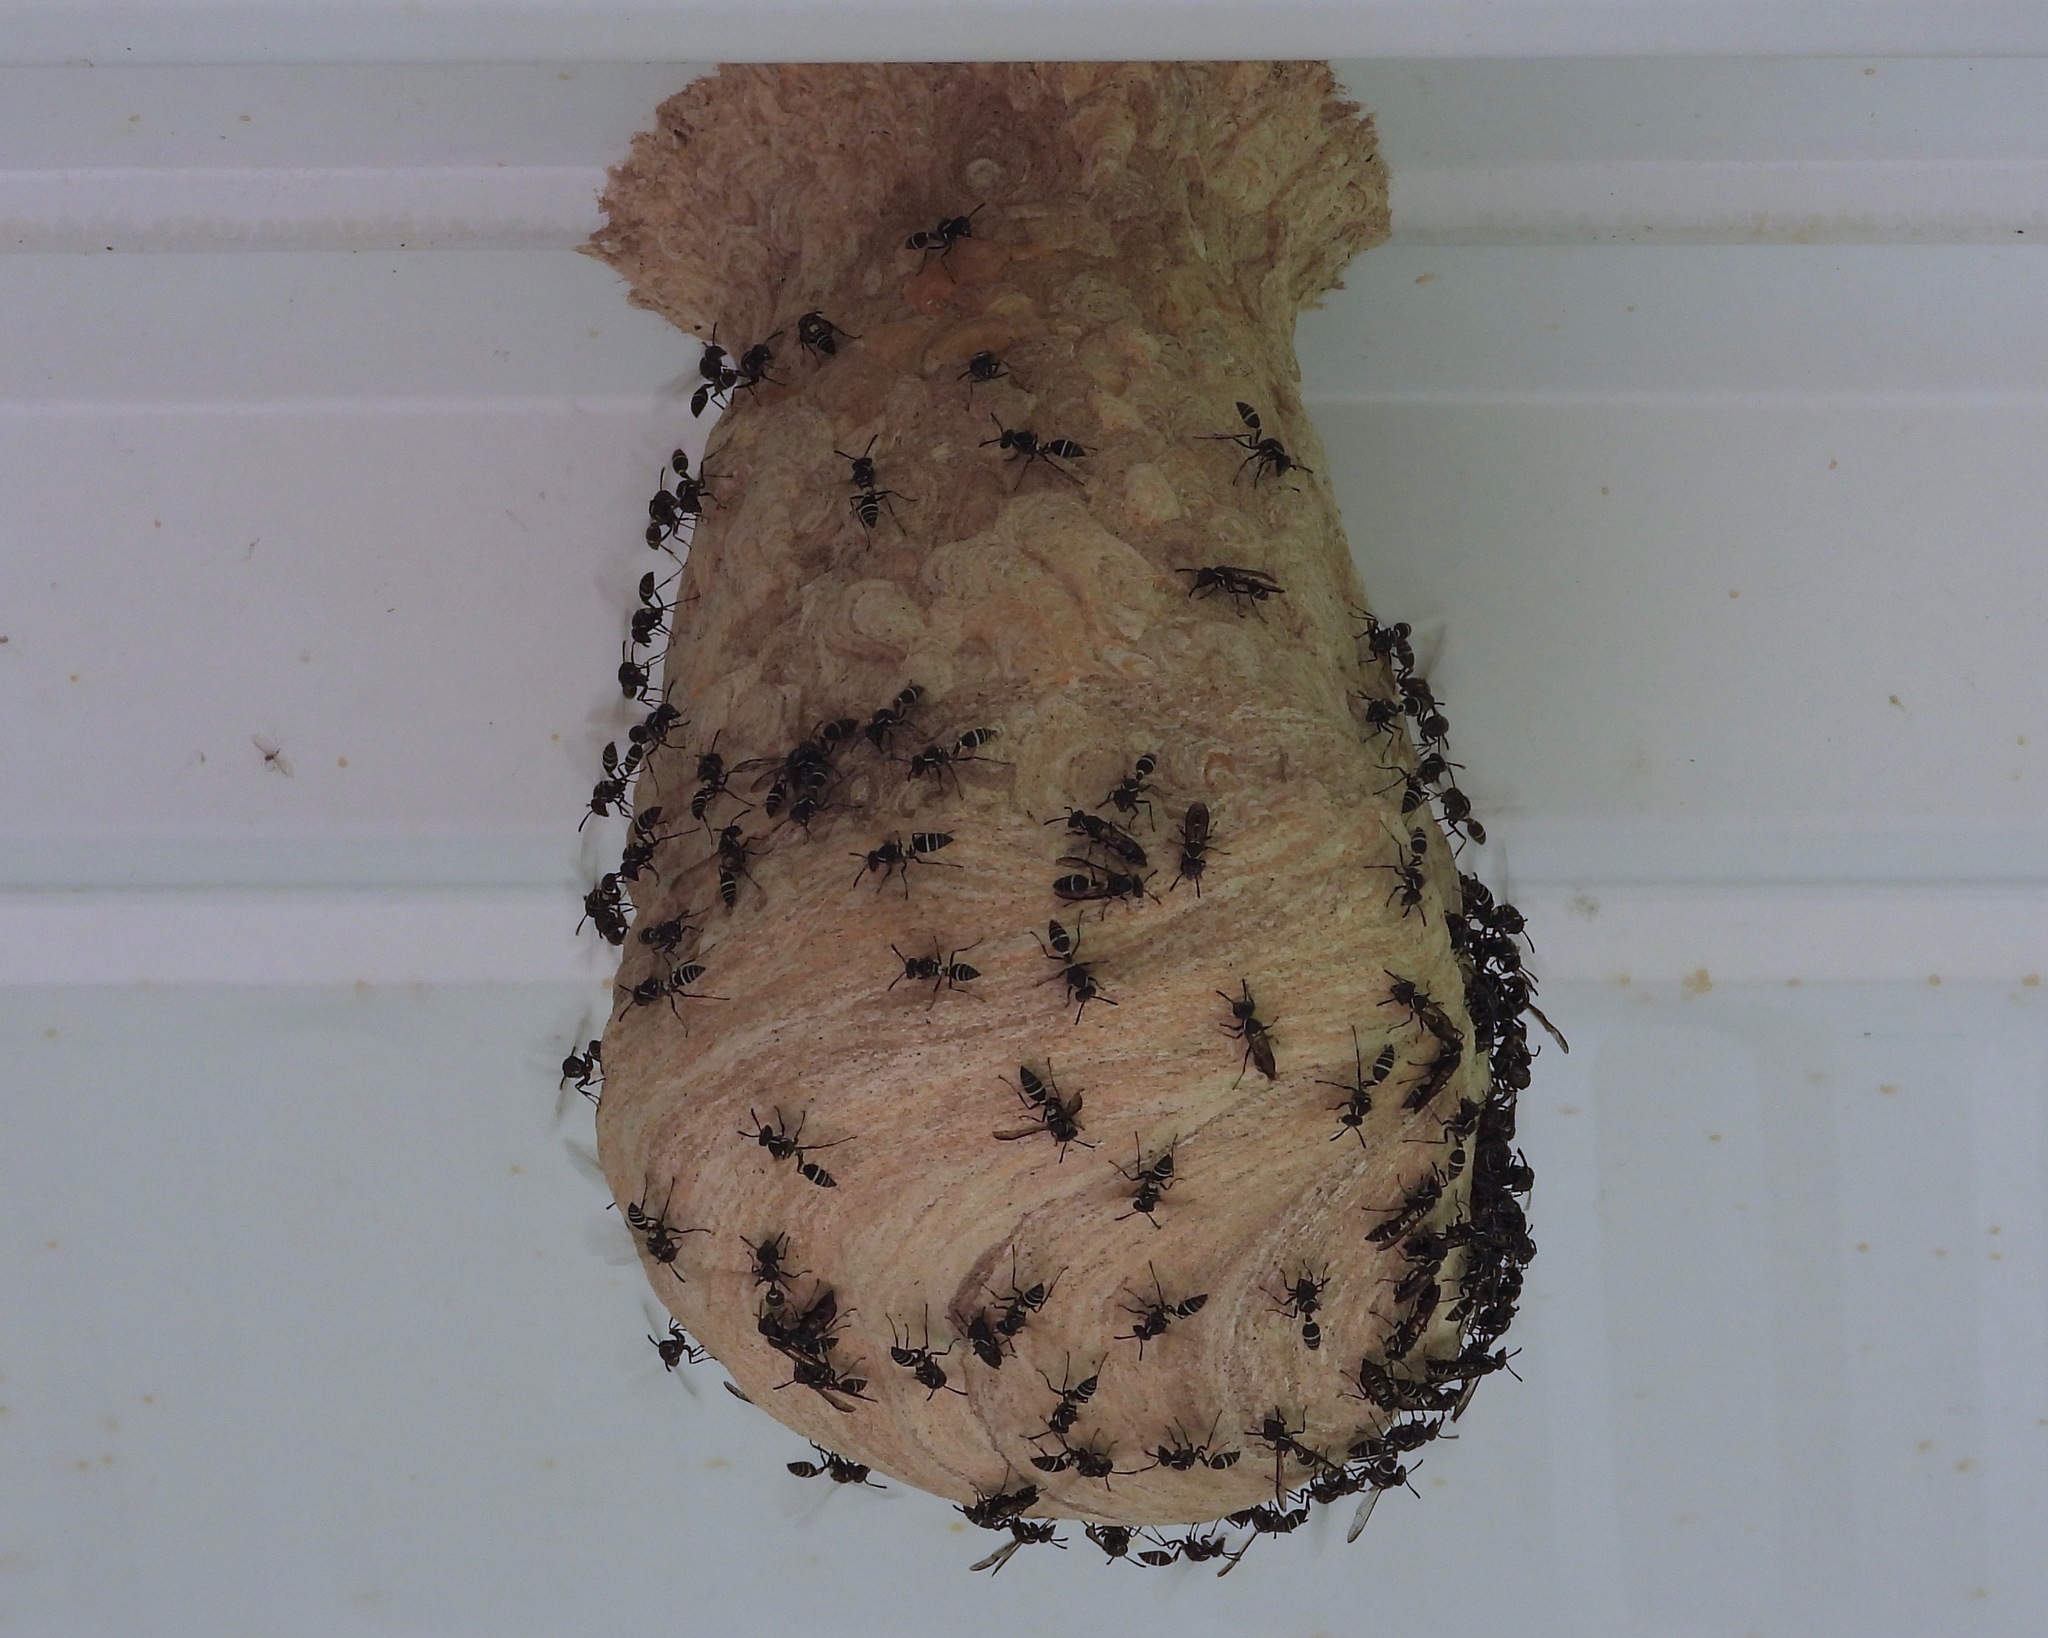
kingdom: Animalia
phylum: Arthropoda
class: Insecta
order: Hymenoptera
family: Eumenidae
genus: Polybia
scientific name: Polybia
